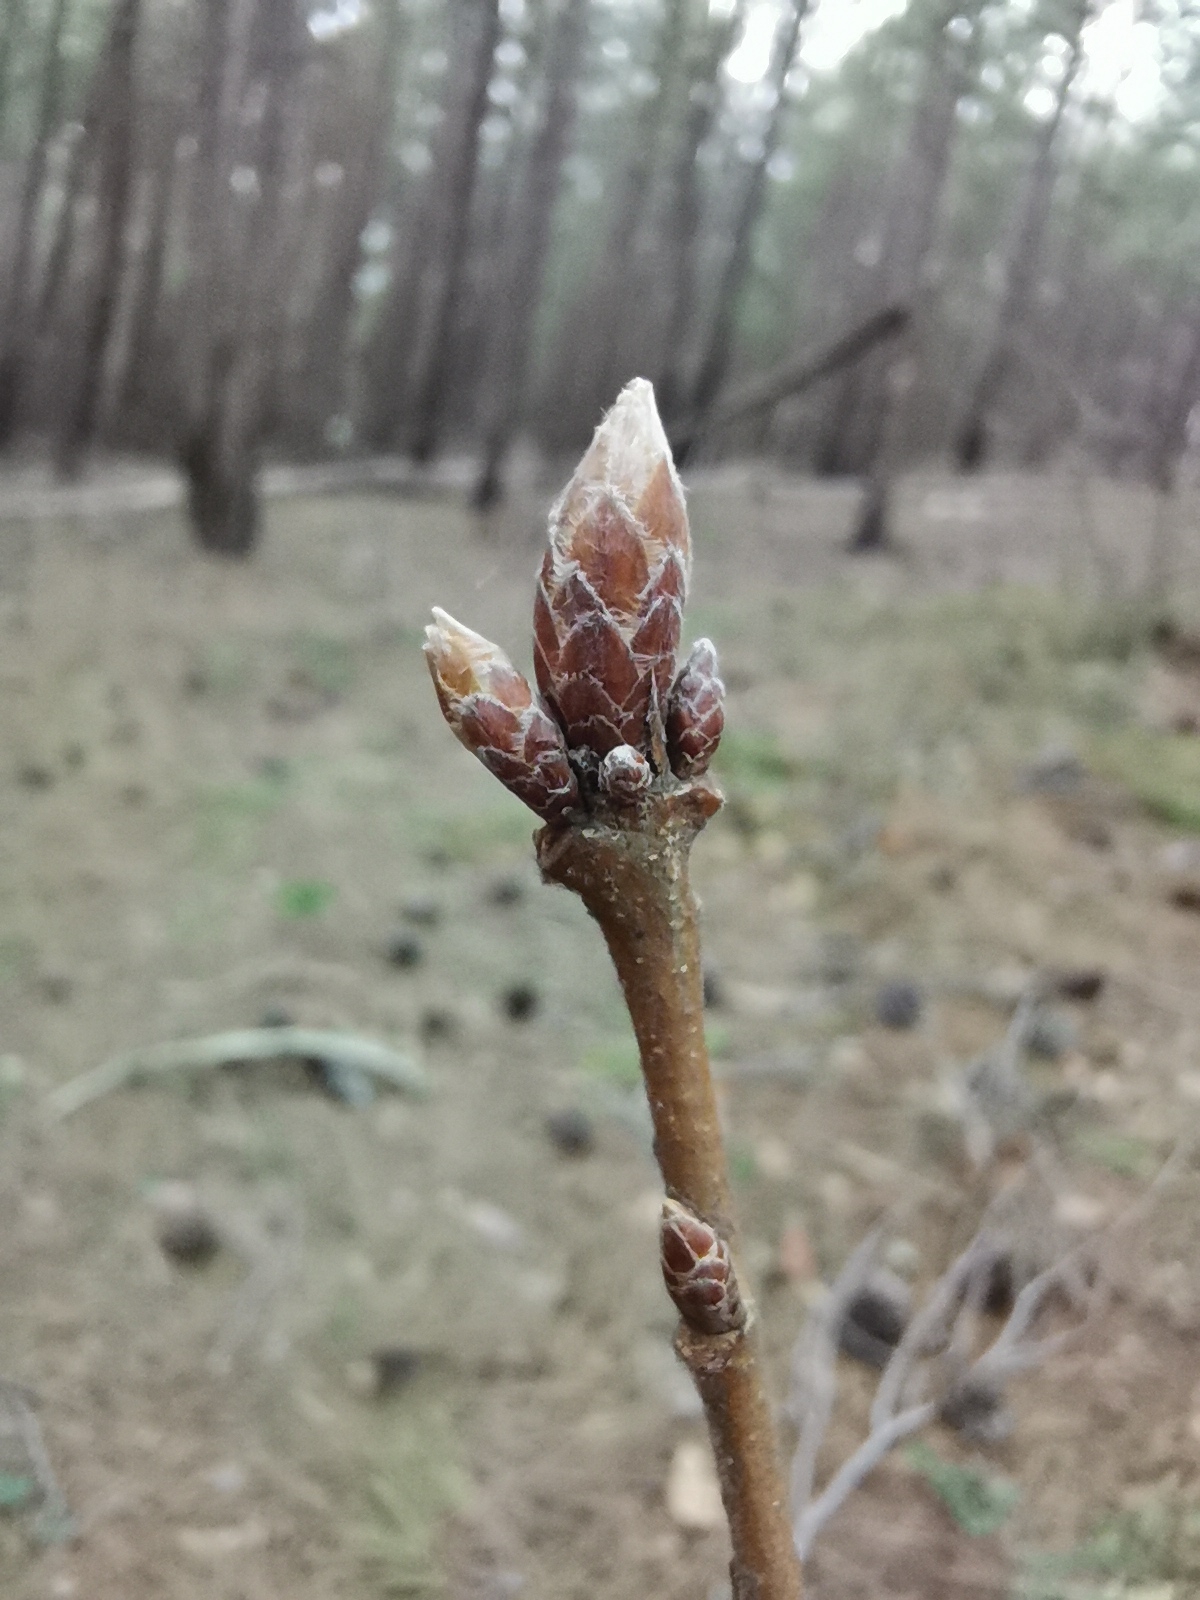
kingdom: Plantae
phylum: Tracheophyta
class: Magnoliopsida
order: Fagales
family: Fagaceae
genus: Quercus
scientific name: Quercus pubescens
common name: Downy oak
